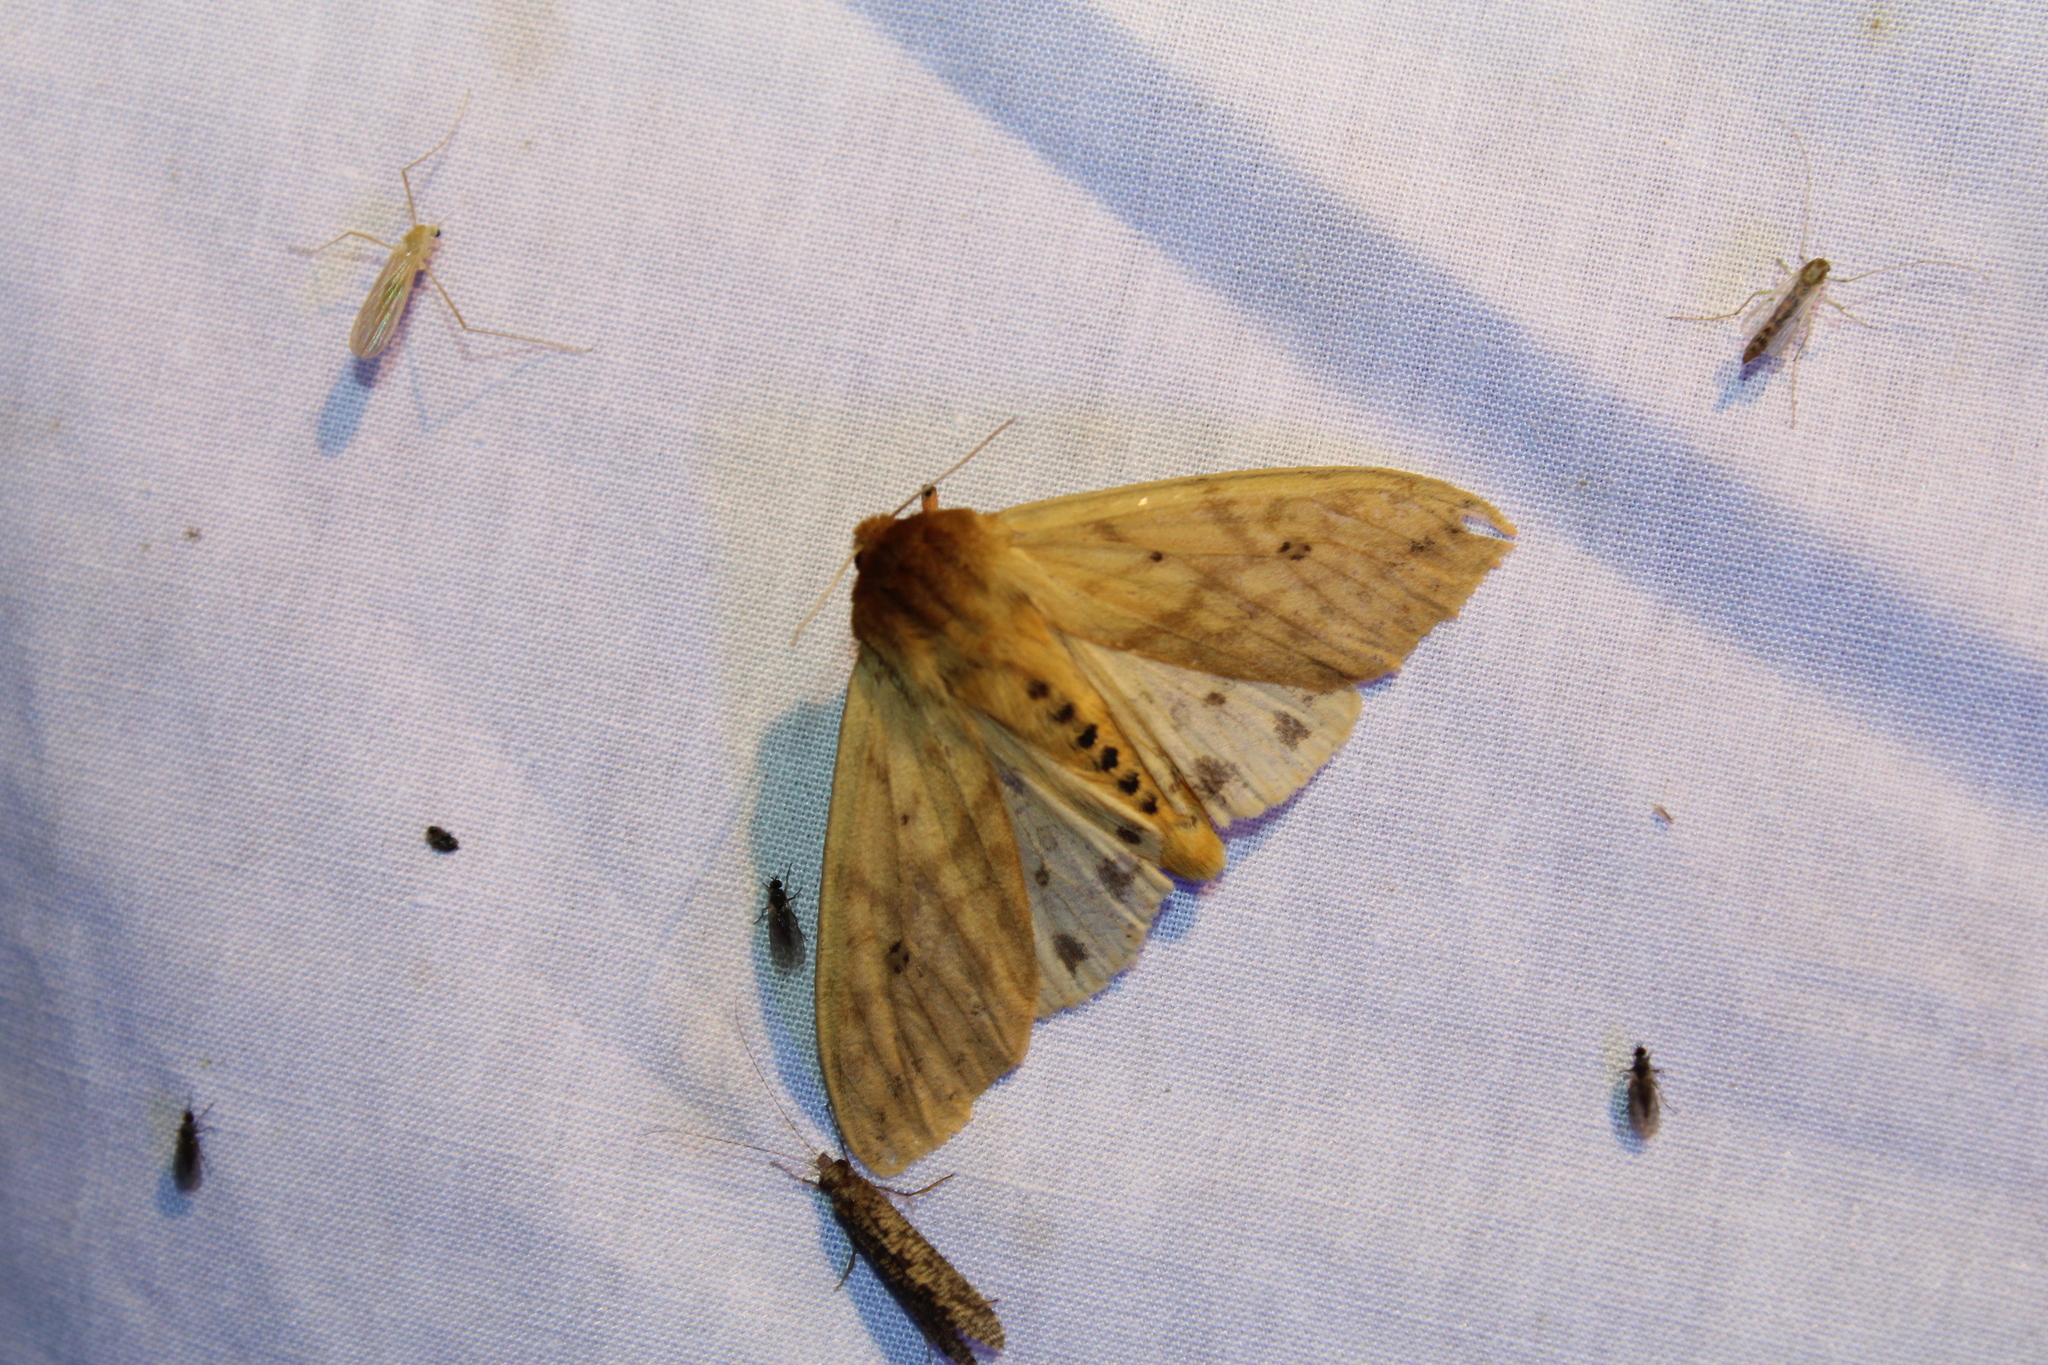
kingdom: Animalia
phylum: Arthropoda
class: Insecta
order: Lepidoptera
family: Erebidae
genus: Pyrrharctia
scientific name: Pyrrharctia isabella
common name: Isabella tiger moth
